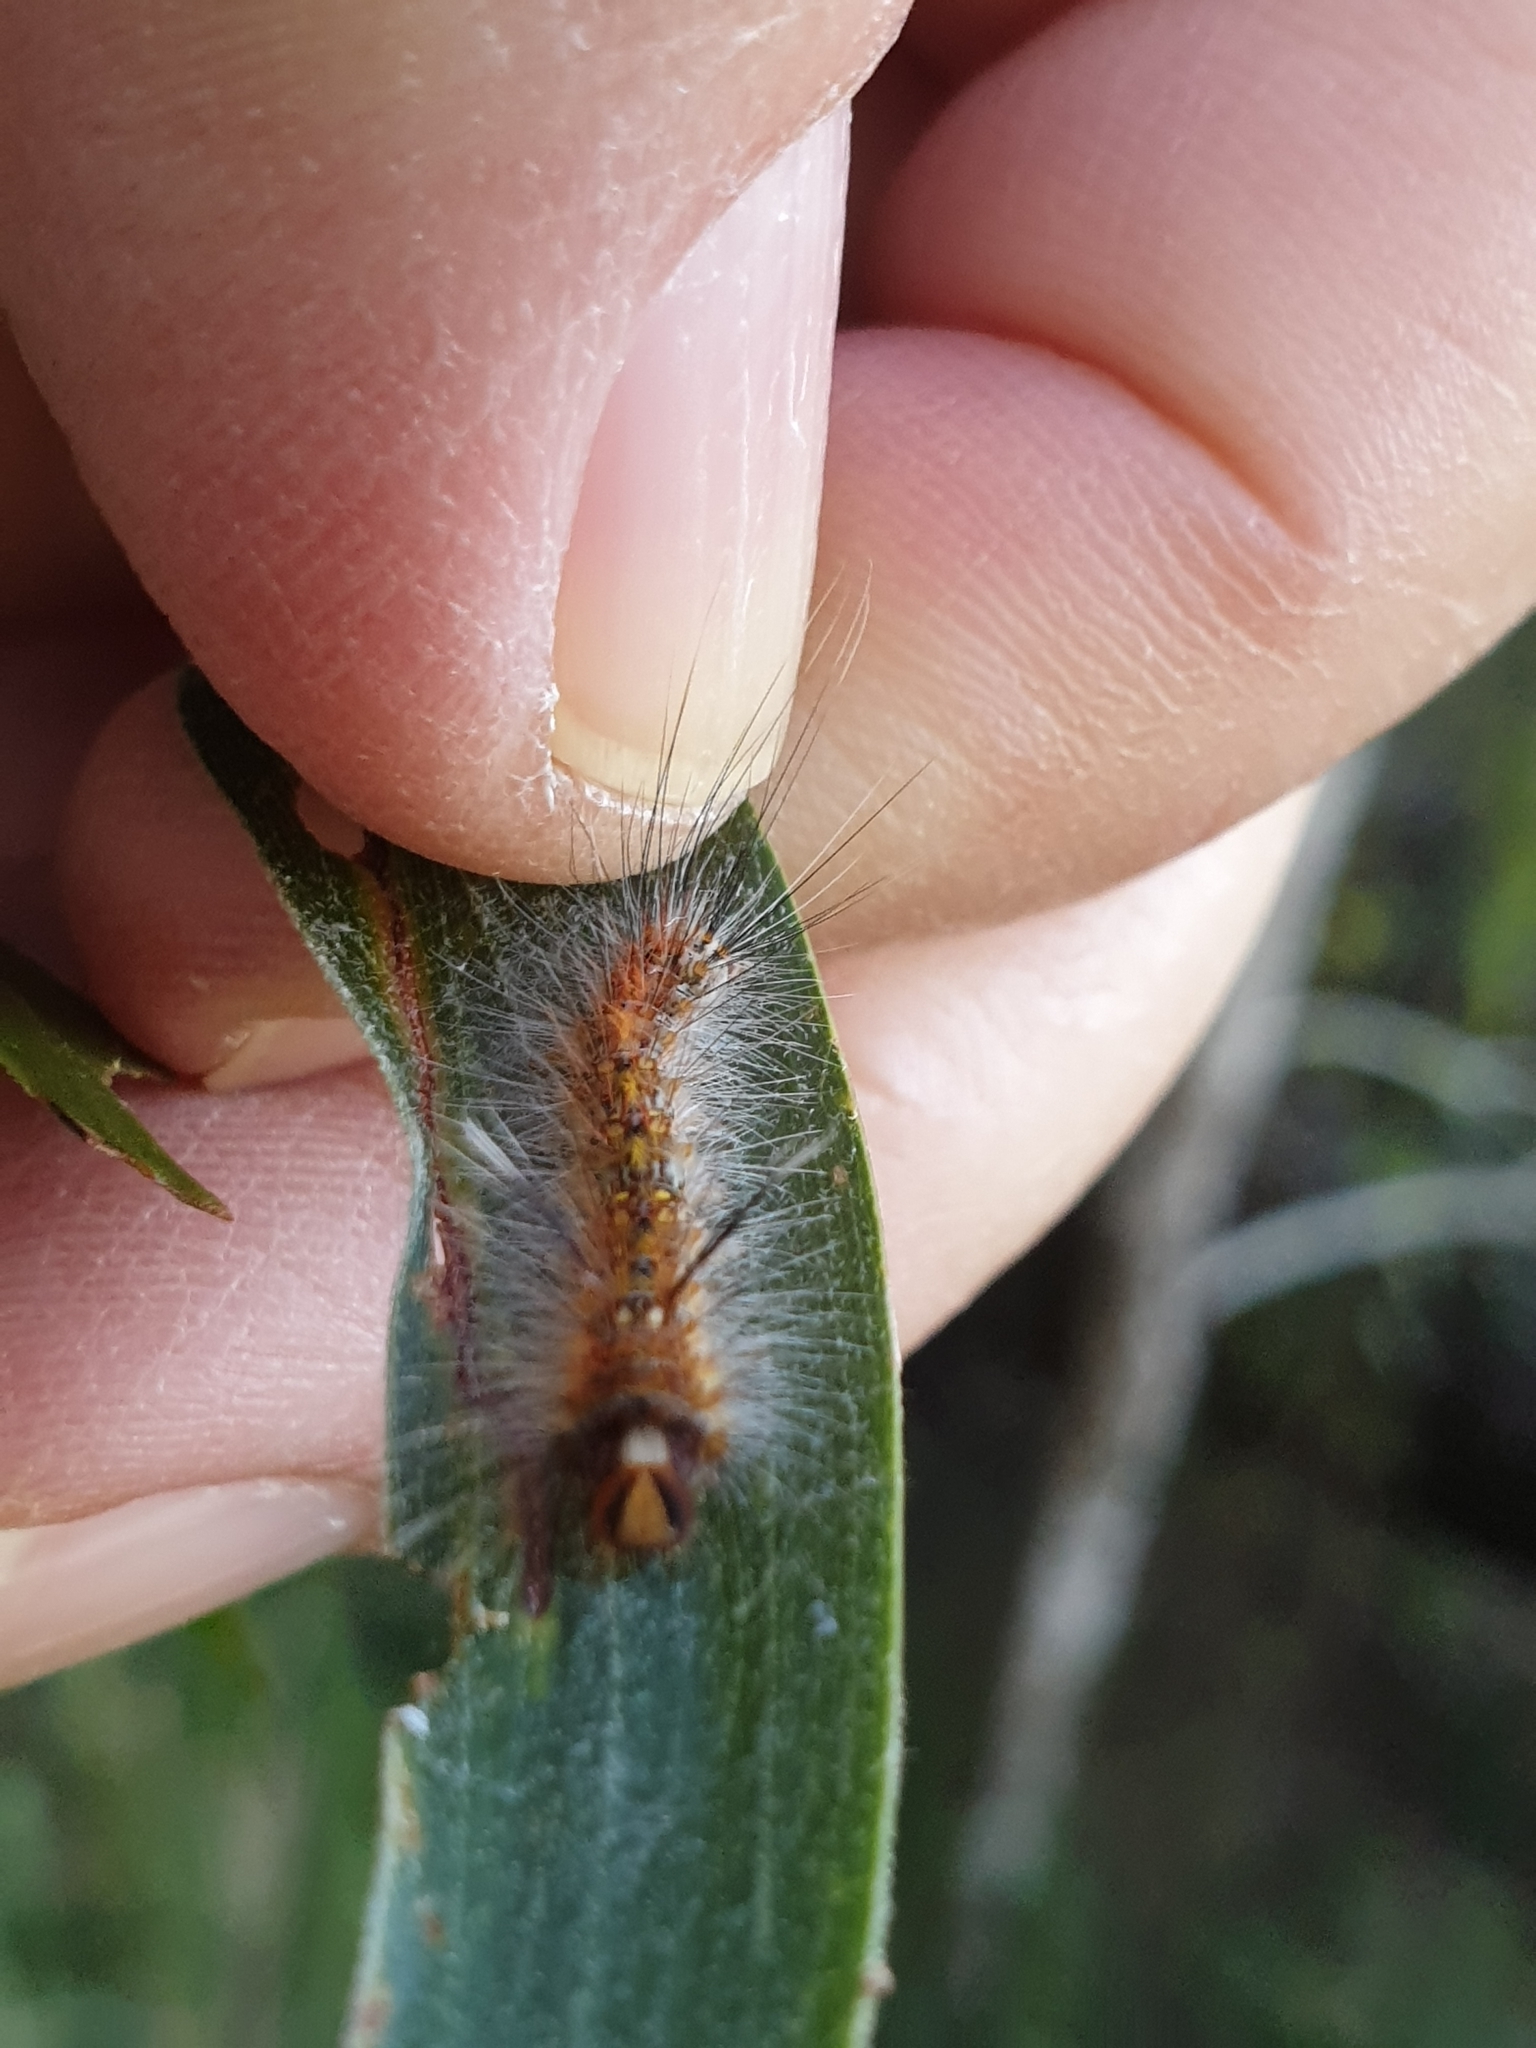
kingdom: Animalia
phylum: Arthropoda
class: Insecta
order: Lepidoptera
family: Anthelidae
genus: Anthela
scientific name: Anthela astata
